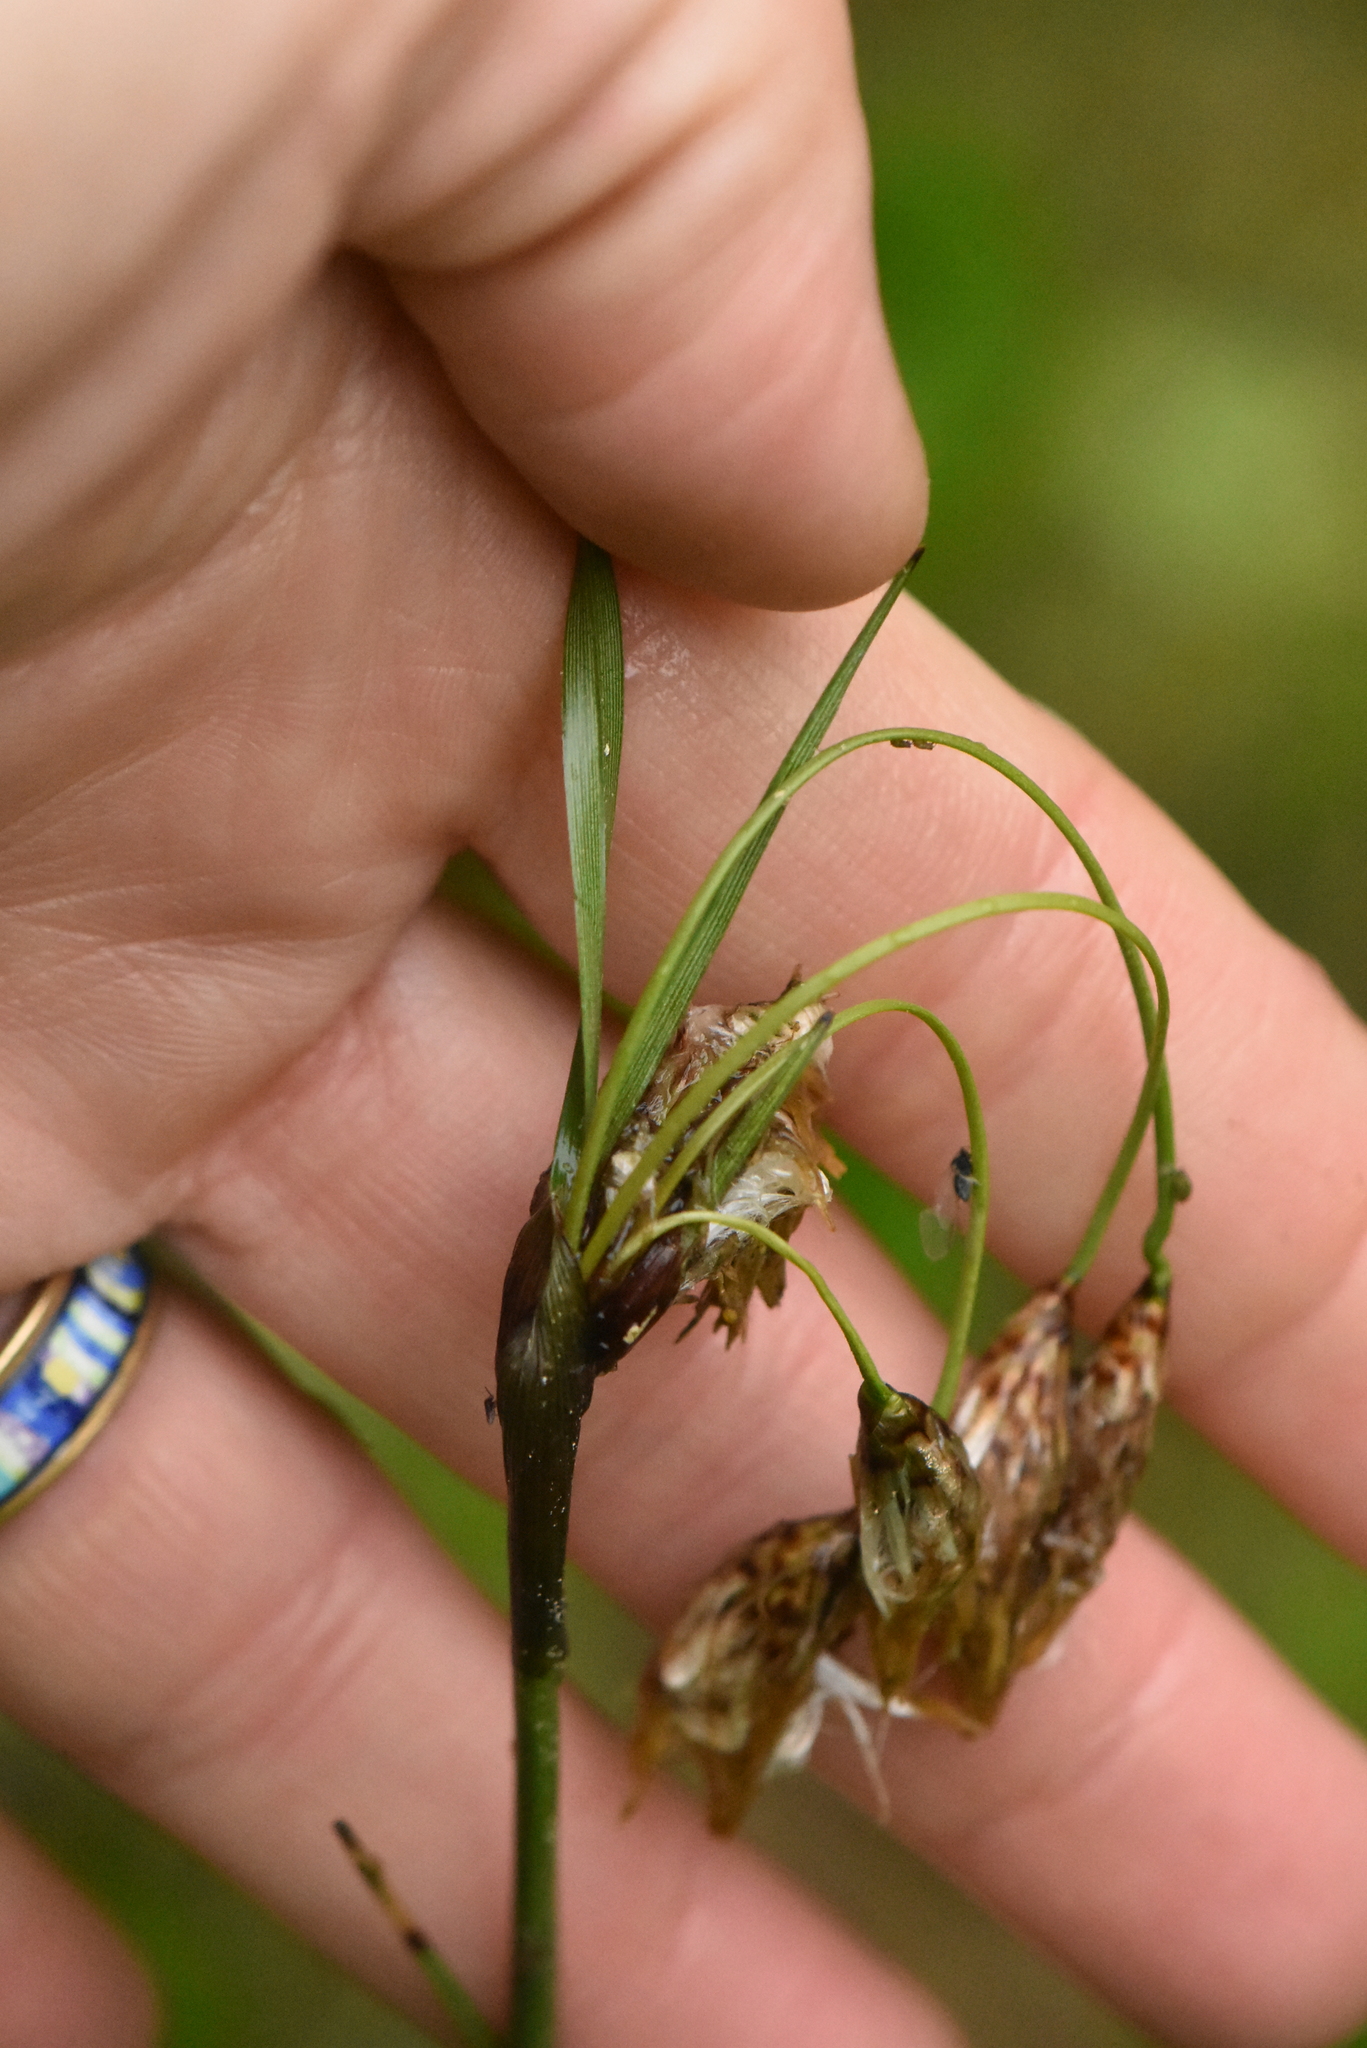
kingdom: Plantae
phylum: Tracheophyta
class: Liliopsida
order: Poales
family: Cyperaceae
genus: Eriophorum
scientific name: Eriophorum angustifolium
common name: Common cottongrass
